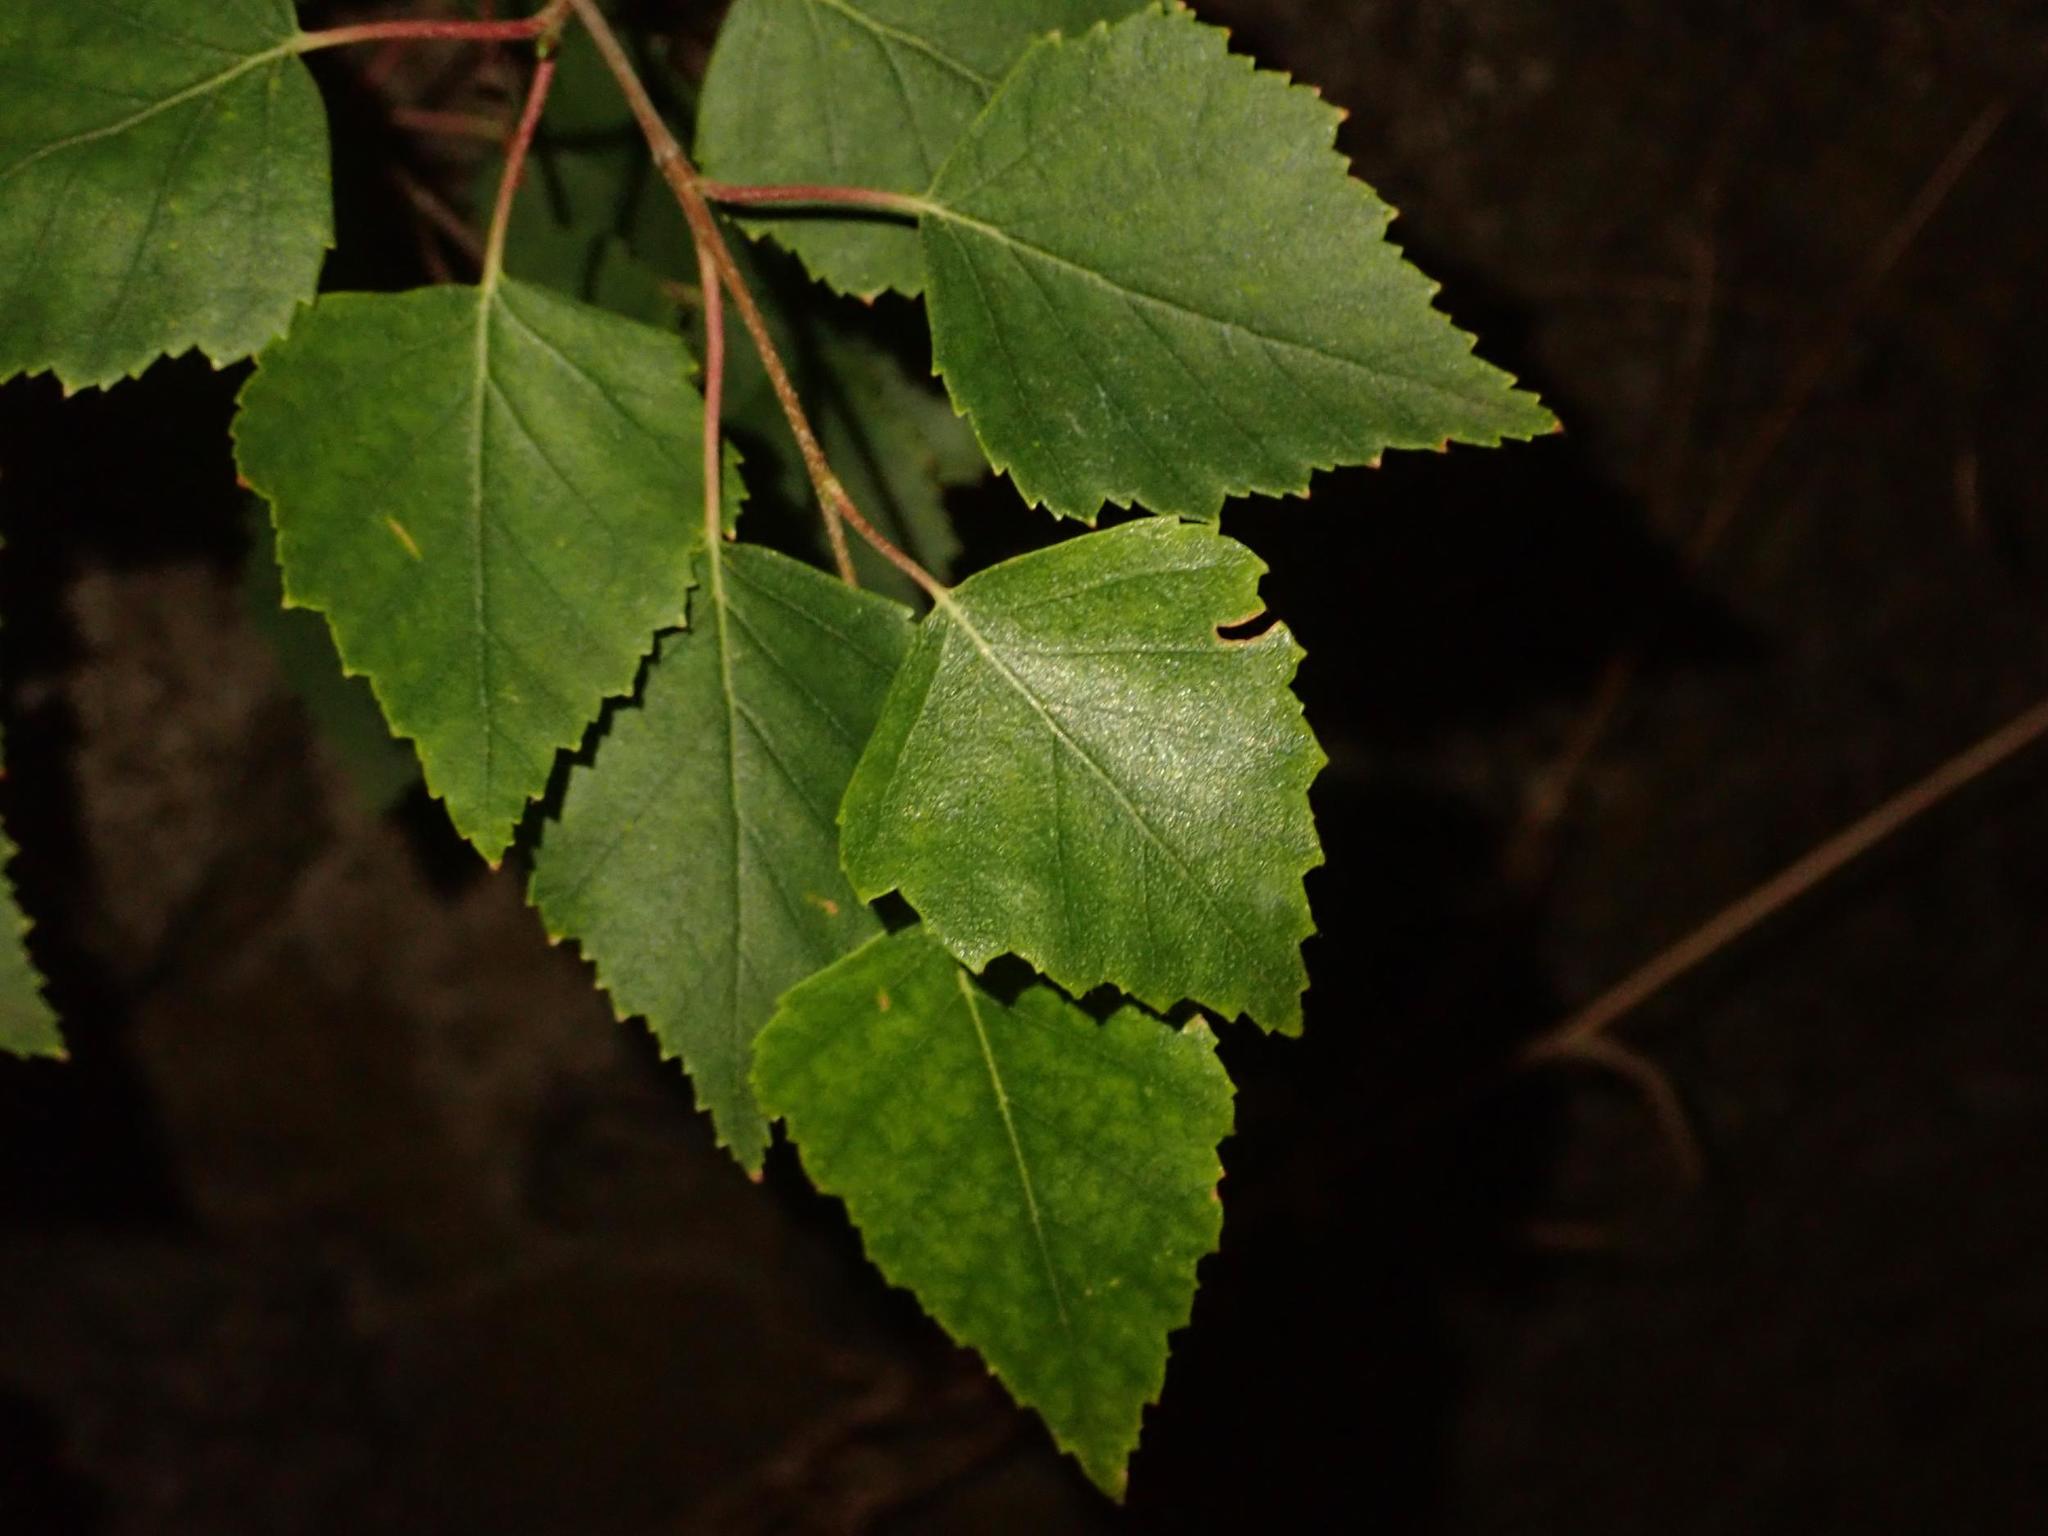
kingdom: Plantae
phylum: Tracheophyta
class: Magnoliopsida
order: Fagales
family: Betulaceae
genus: Betula
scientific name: Betula pendula
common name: Silver birch
